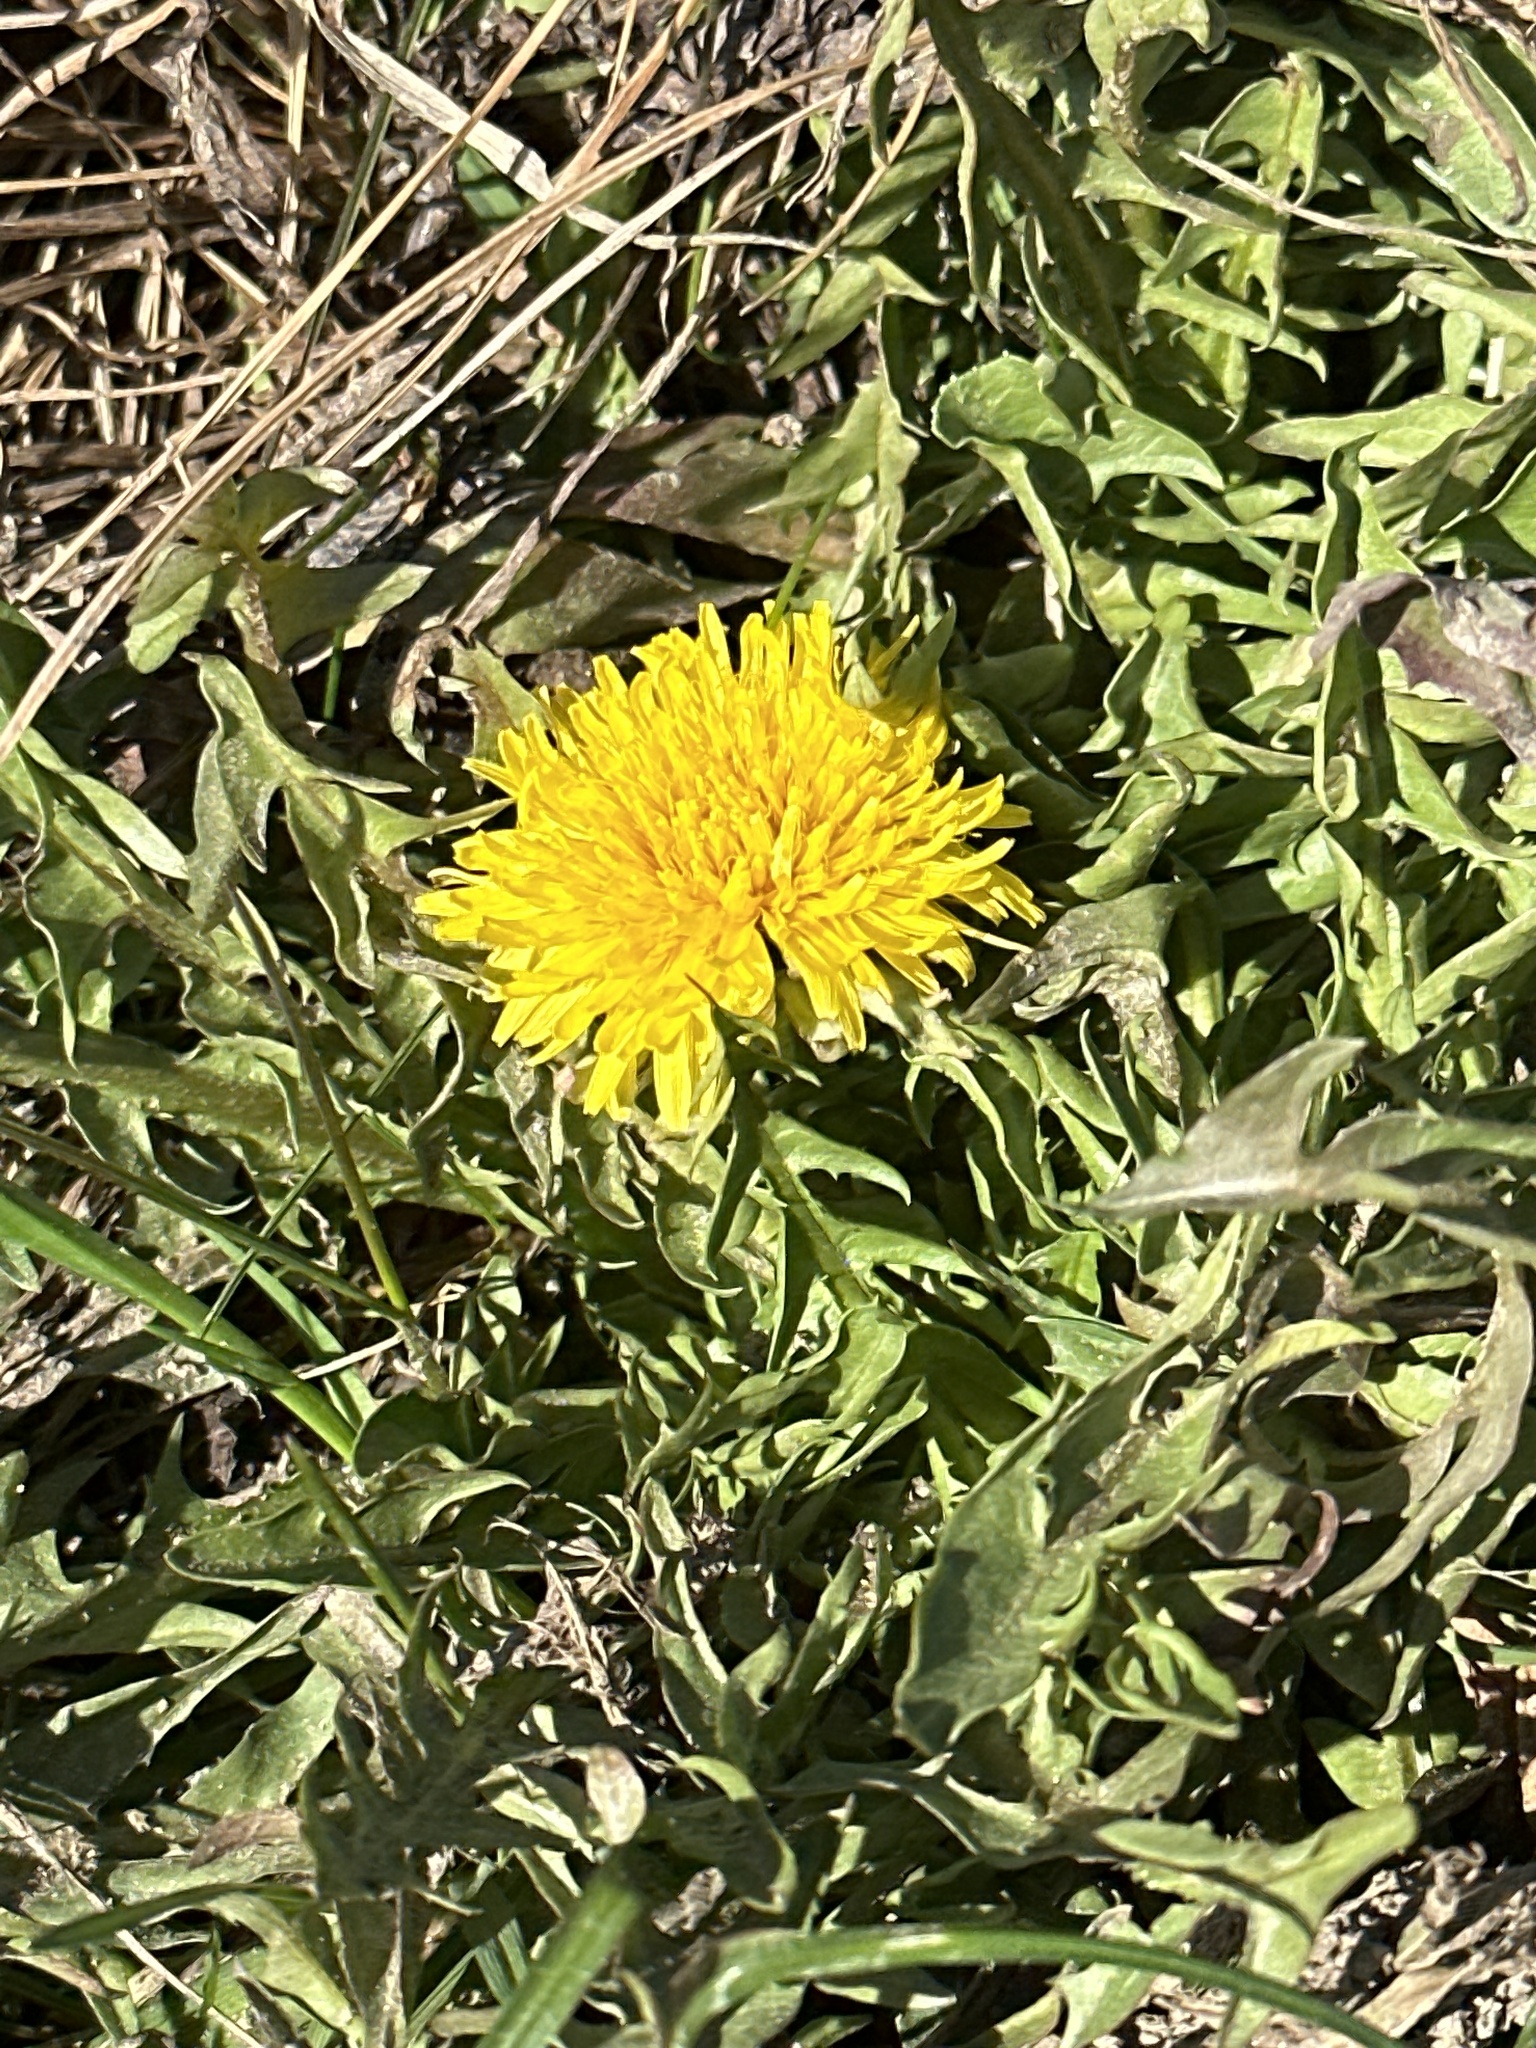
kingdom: Plantae
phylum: Tracheophyta
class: Magnoliopsida
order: Asterales
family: Asteraceae
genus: Taraxacum
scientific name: Taraxacum
